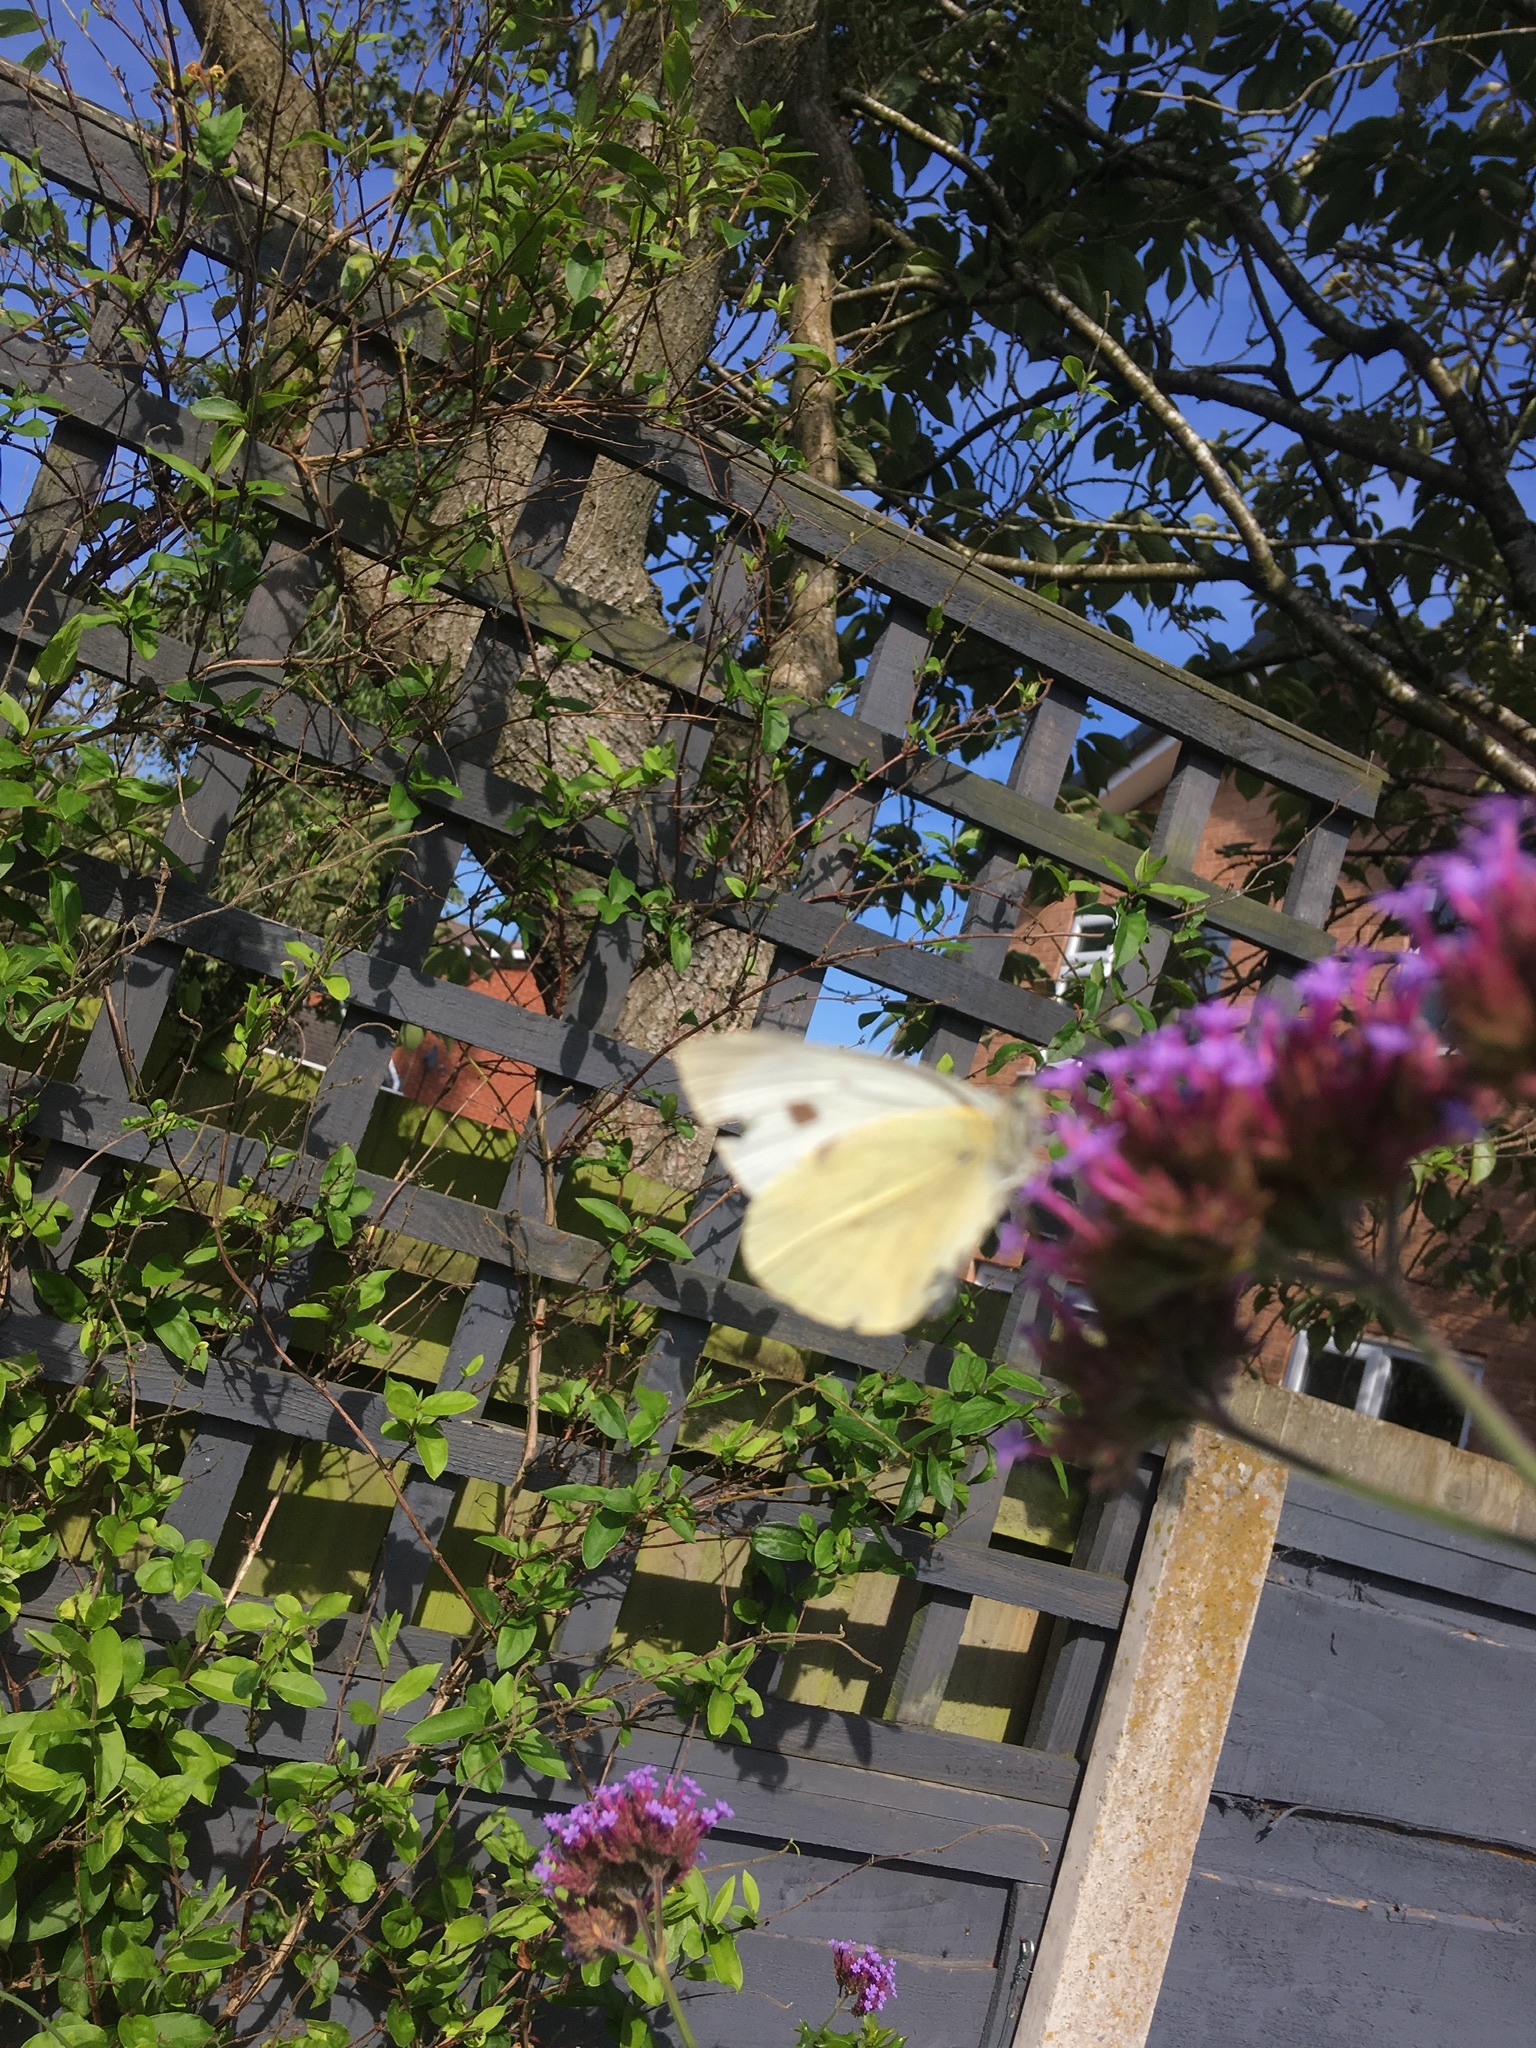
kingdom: Animalia
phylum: Arthropoda
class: Insecta
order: Lepidoptera
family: Pieridae
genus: Pieris
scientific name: Pieris brassicae
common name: Large white
